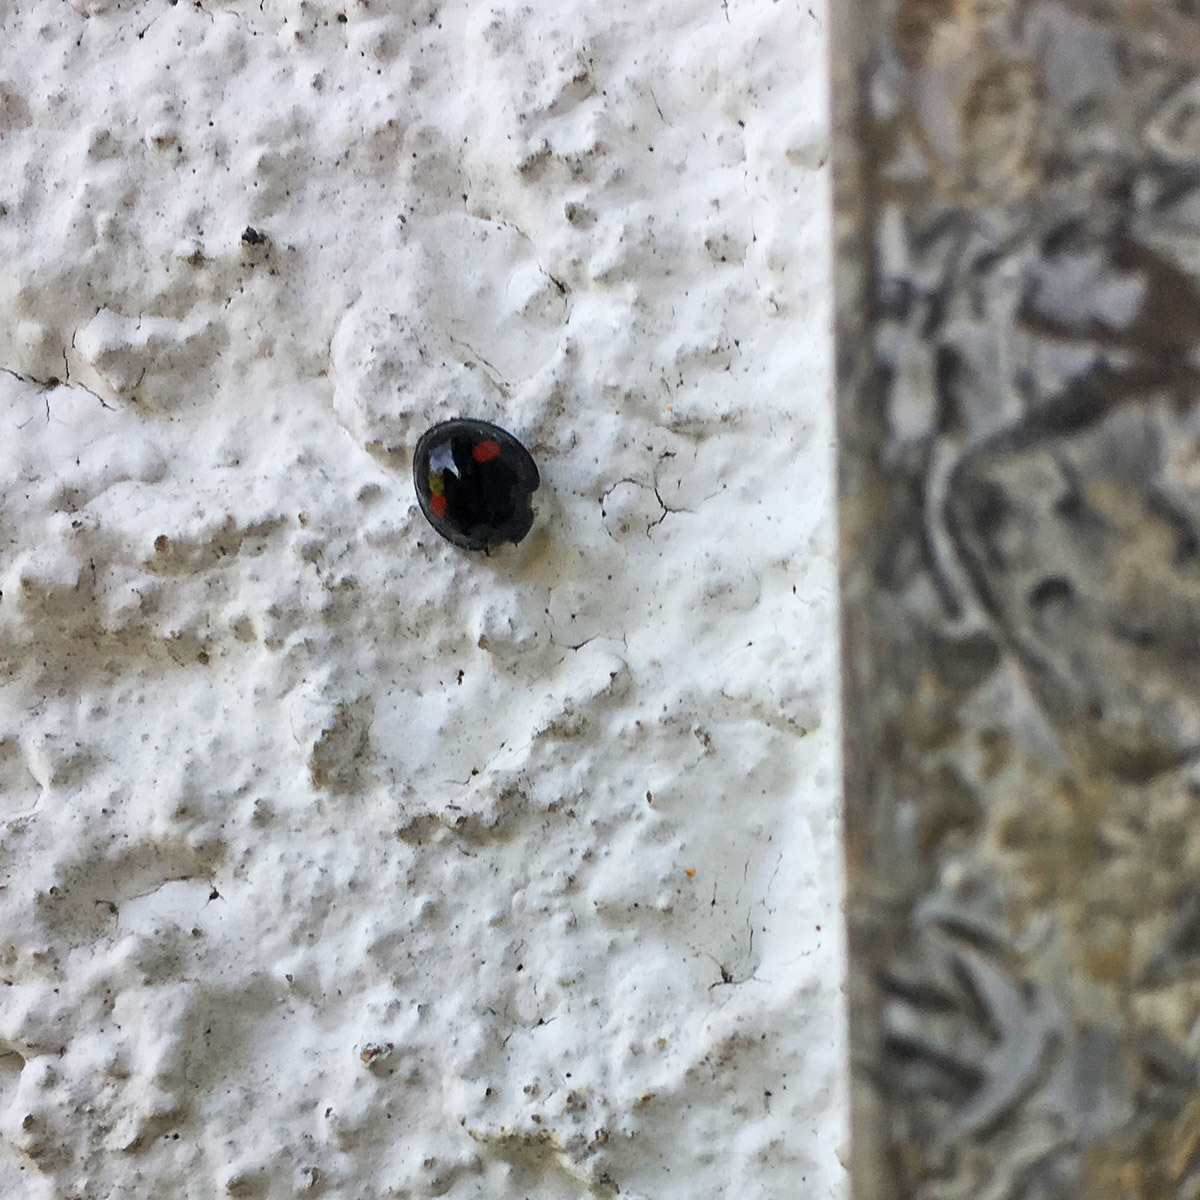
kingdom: Animalia
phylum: Arthropoda
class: Insecta
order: Coleoptera
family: Coccinellidae
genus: Chilocorus
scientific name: Chilocorus renipustulatus
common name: Kidney-spot ladybird
